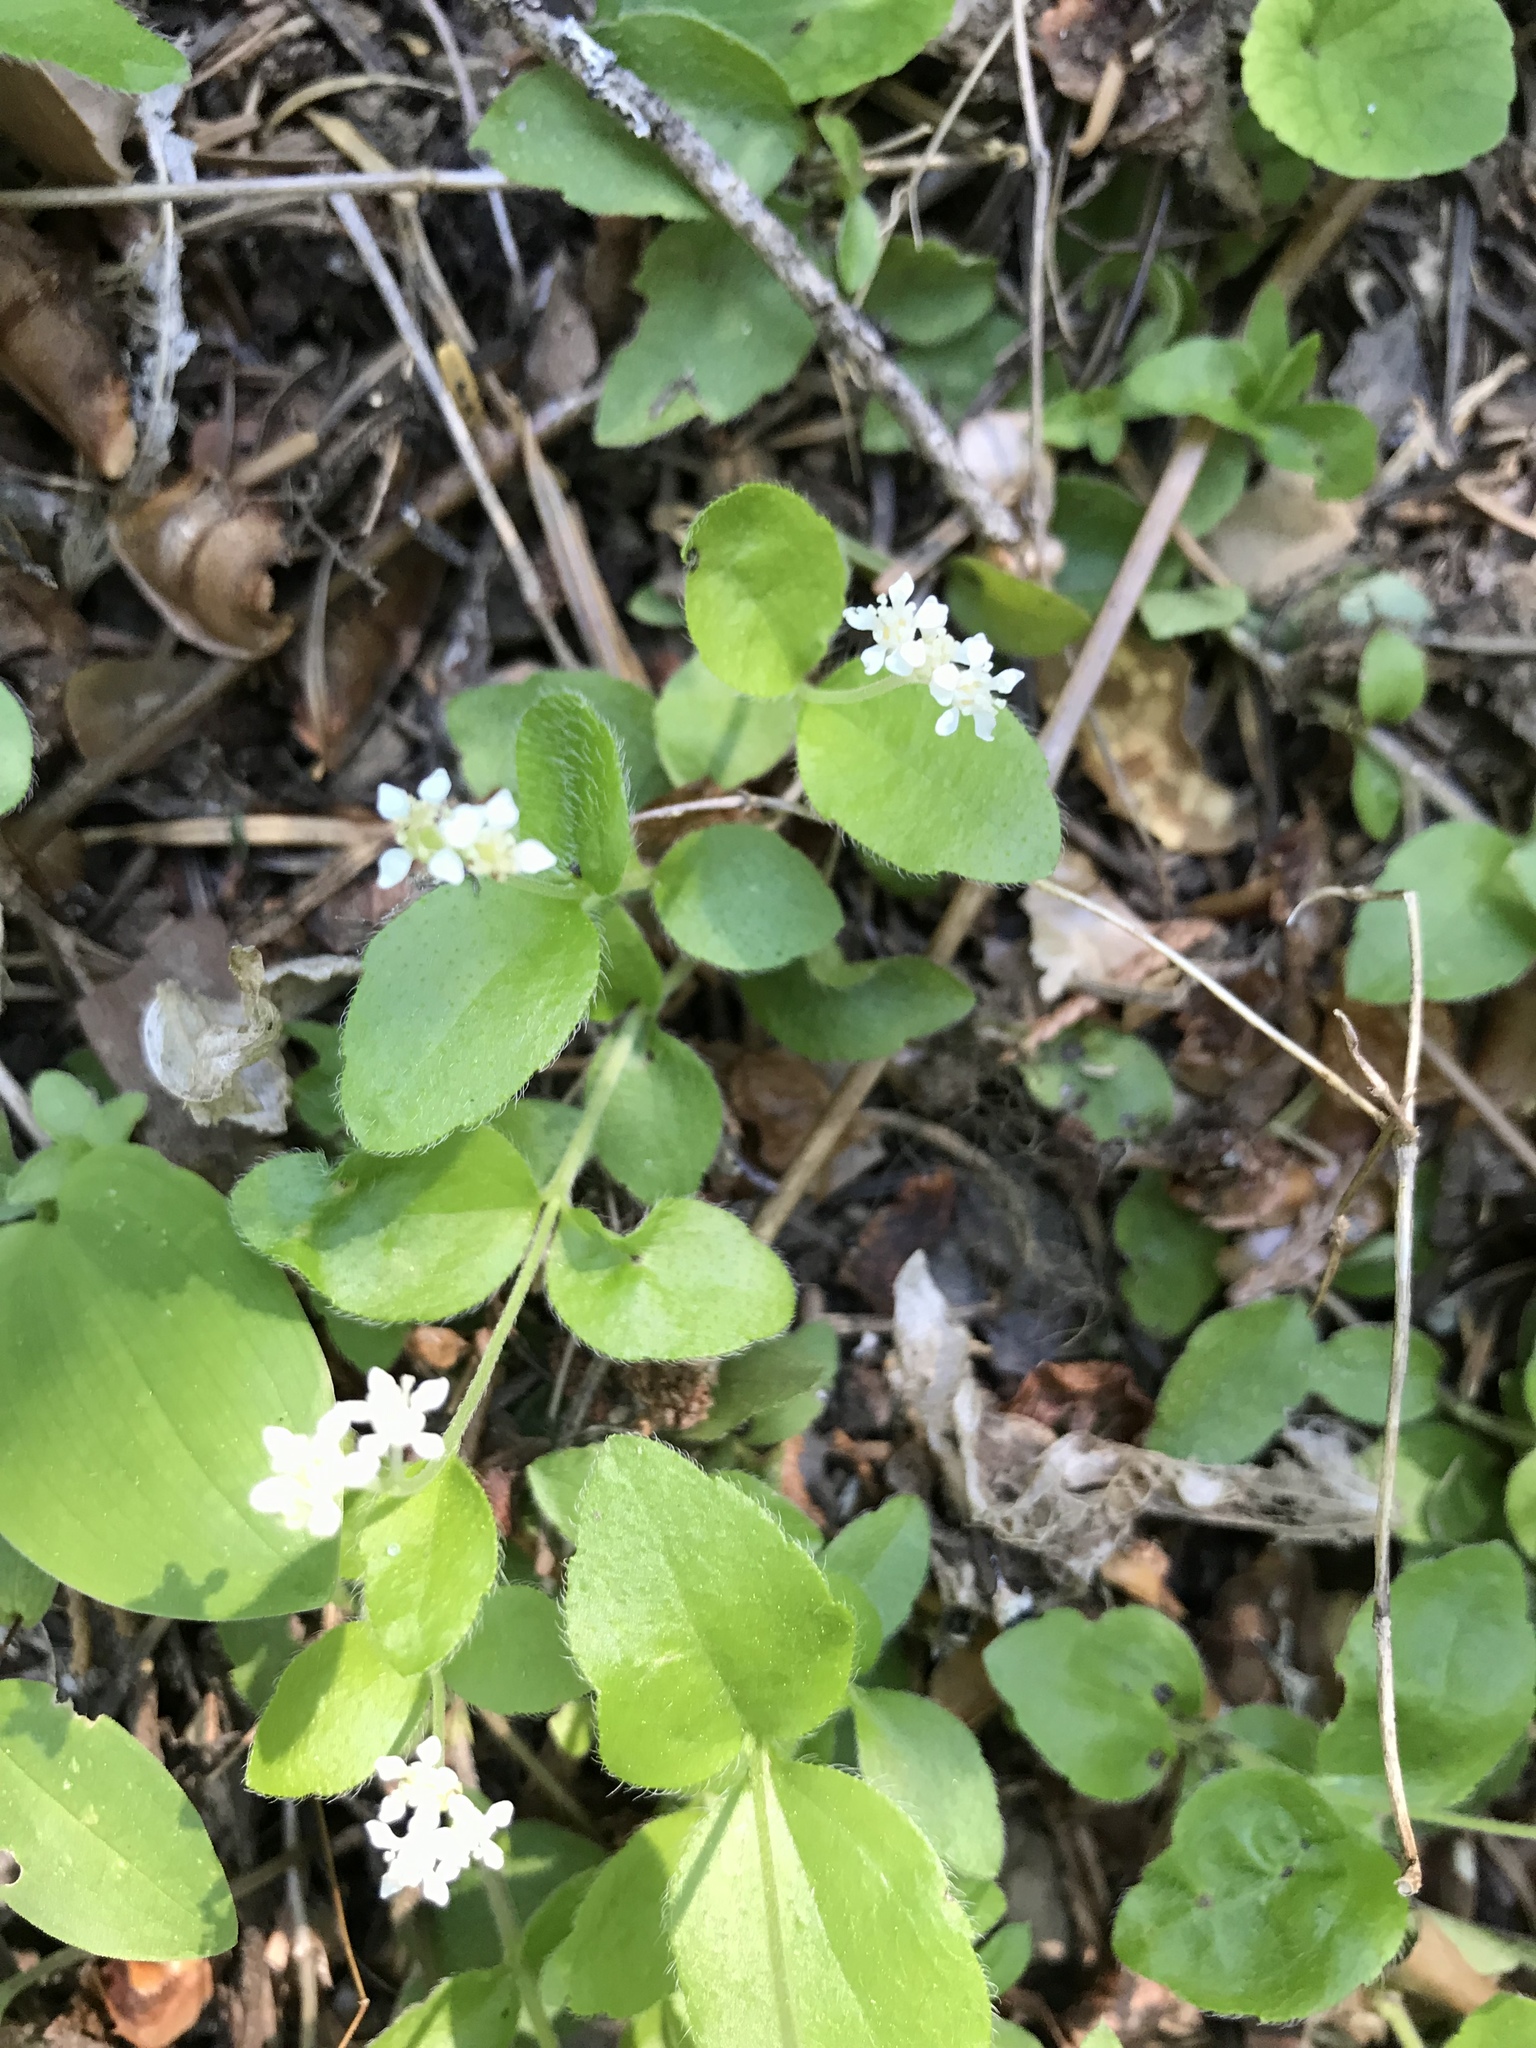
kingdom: Plantae
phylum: Tracheophyta
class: Magnoliopsida
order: Cornales
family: Hydrangeaceae
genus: Whipplea
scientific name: Whipplea modesta
